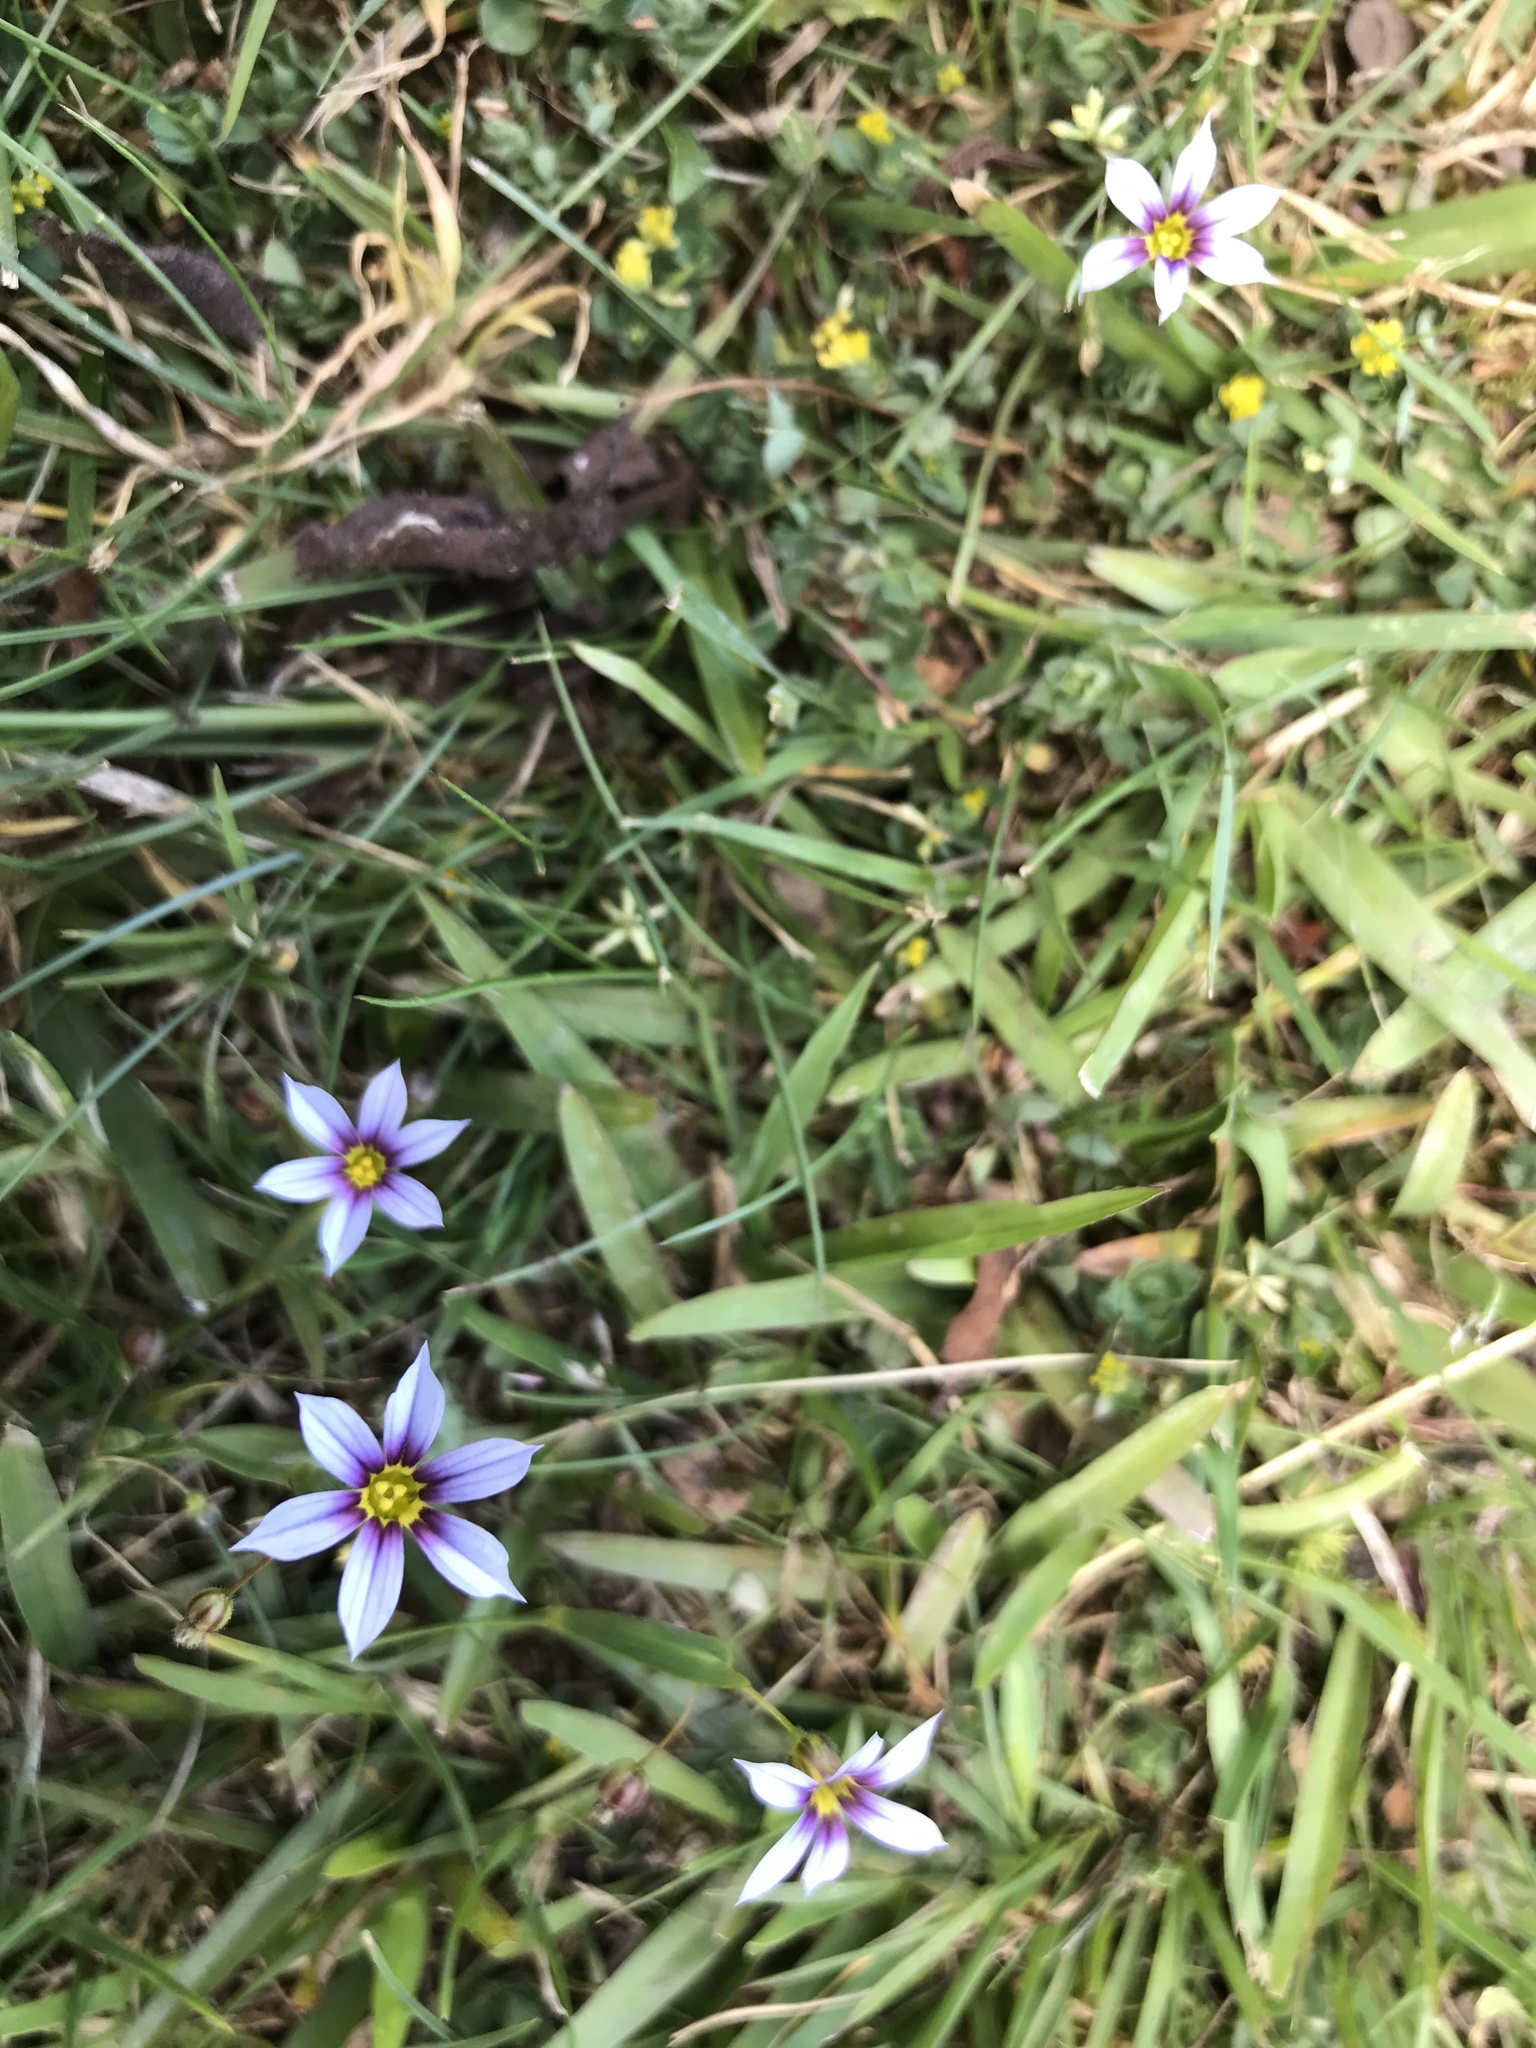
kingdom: Plantae
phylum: Tracheophyta
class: Liliopsida
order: Asparagales
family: Iridaceae
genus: Sisyrinchium
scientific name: Sisyrinchium micranthum
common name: Bermuda pigroot
